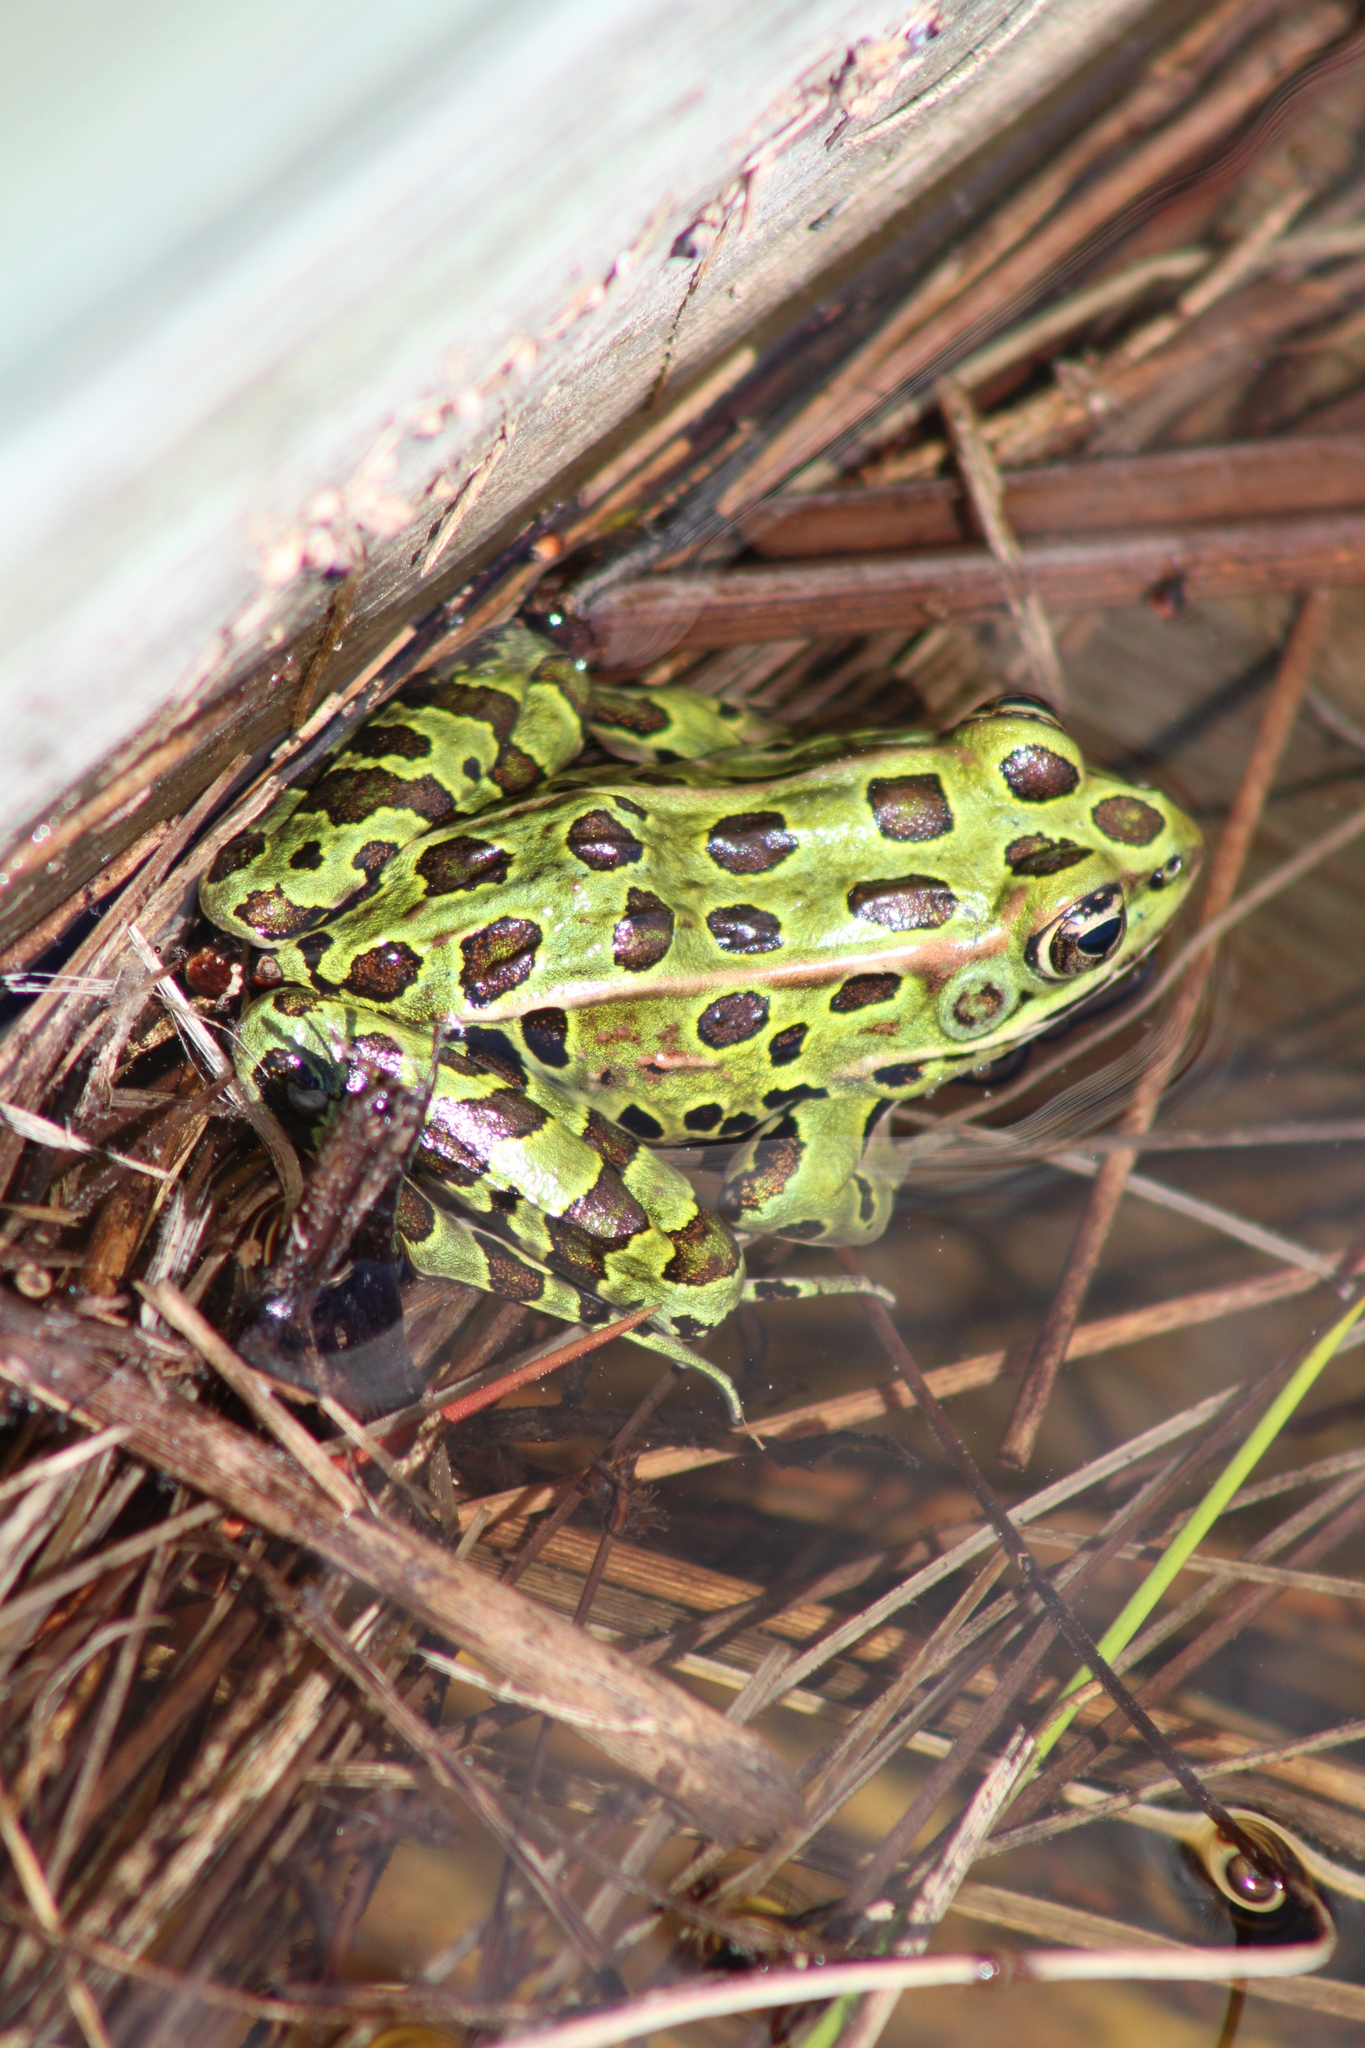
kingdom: Animalia
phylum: Chordata
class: Amphibia
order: Anura
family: Ranidae
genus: Lithobates
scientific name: Lithobates pipiens
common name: Northern leopard frog
